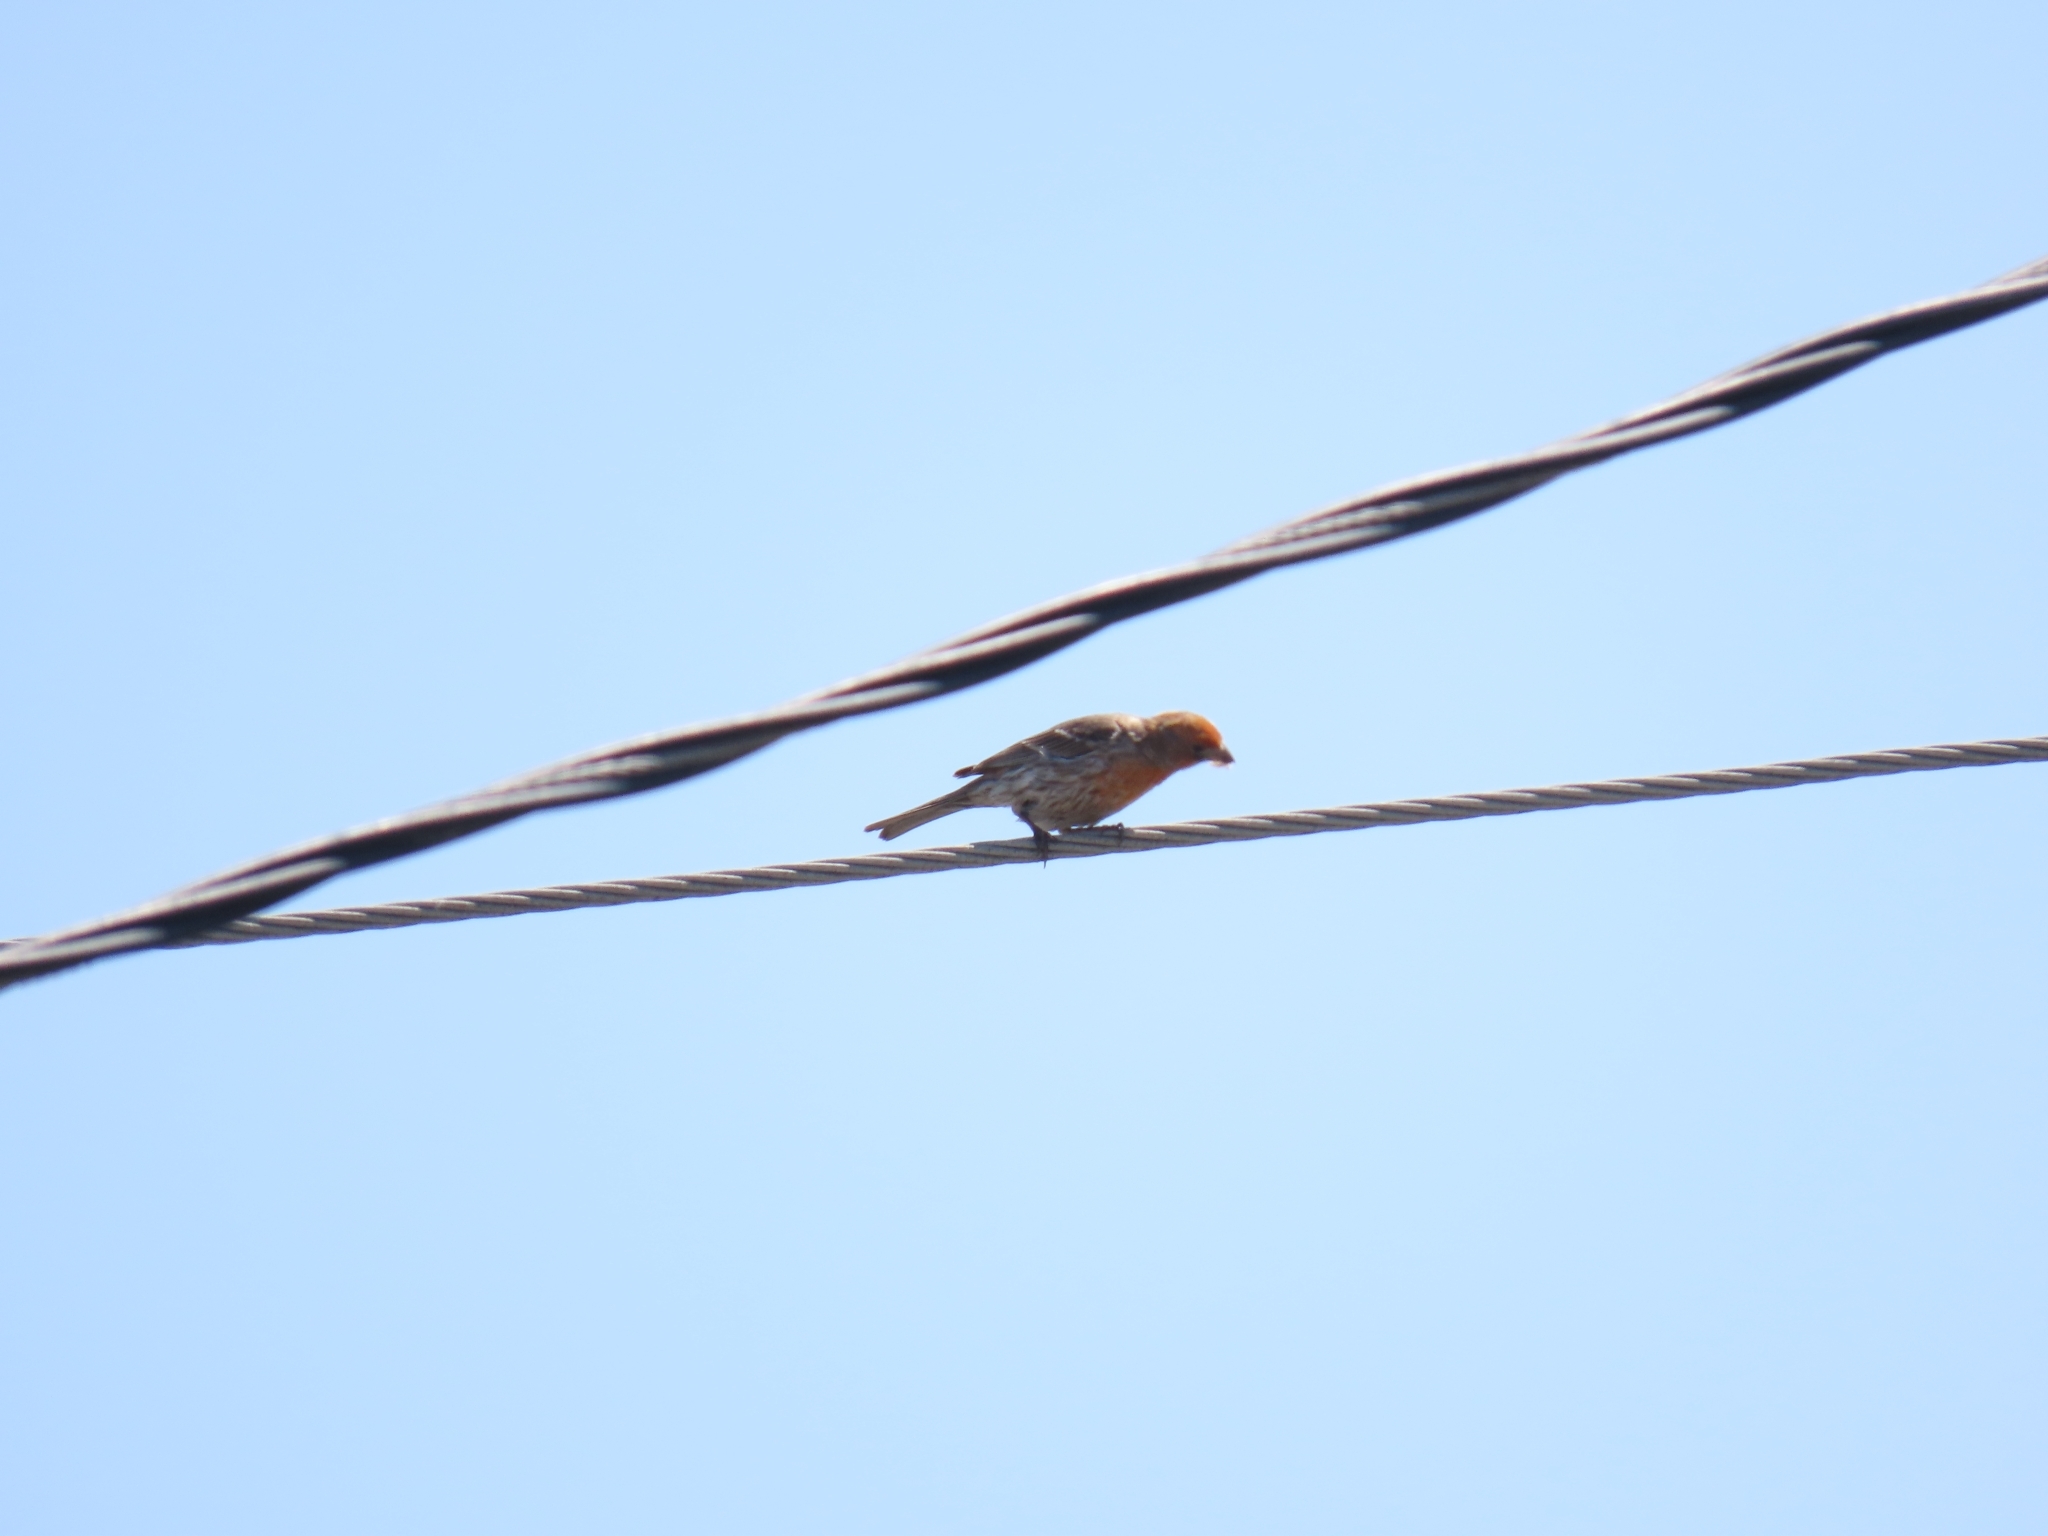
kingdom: Animalia
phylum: Chordata
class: Aves
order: Passeriformes
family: Fringillidae
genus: Haemorhous
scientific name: Haemorhous mexicanus
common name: House finch
